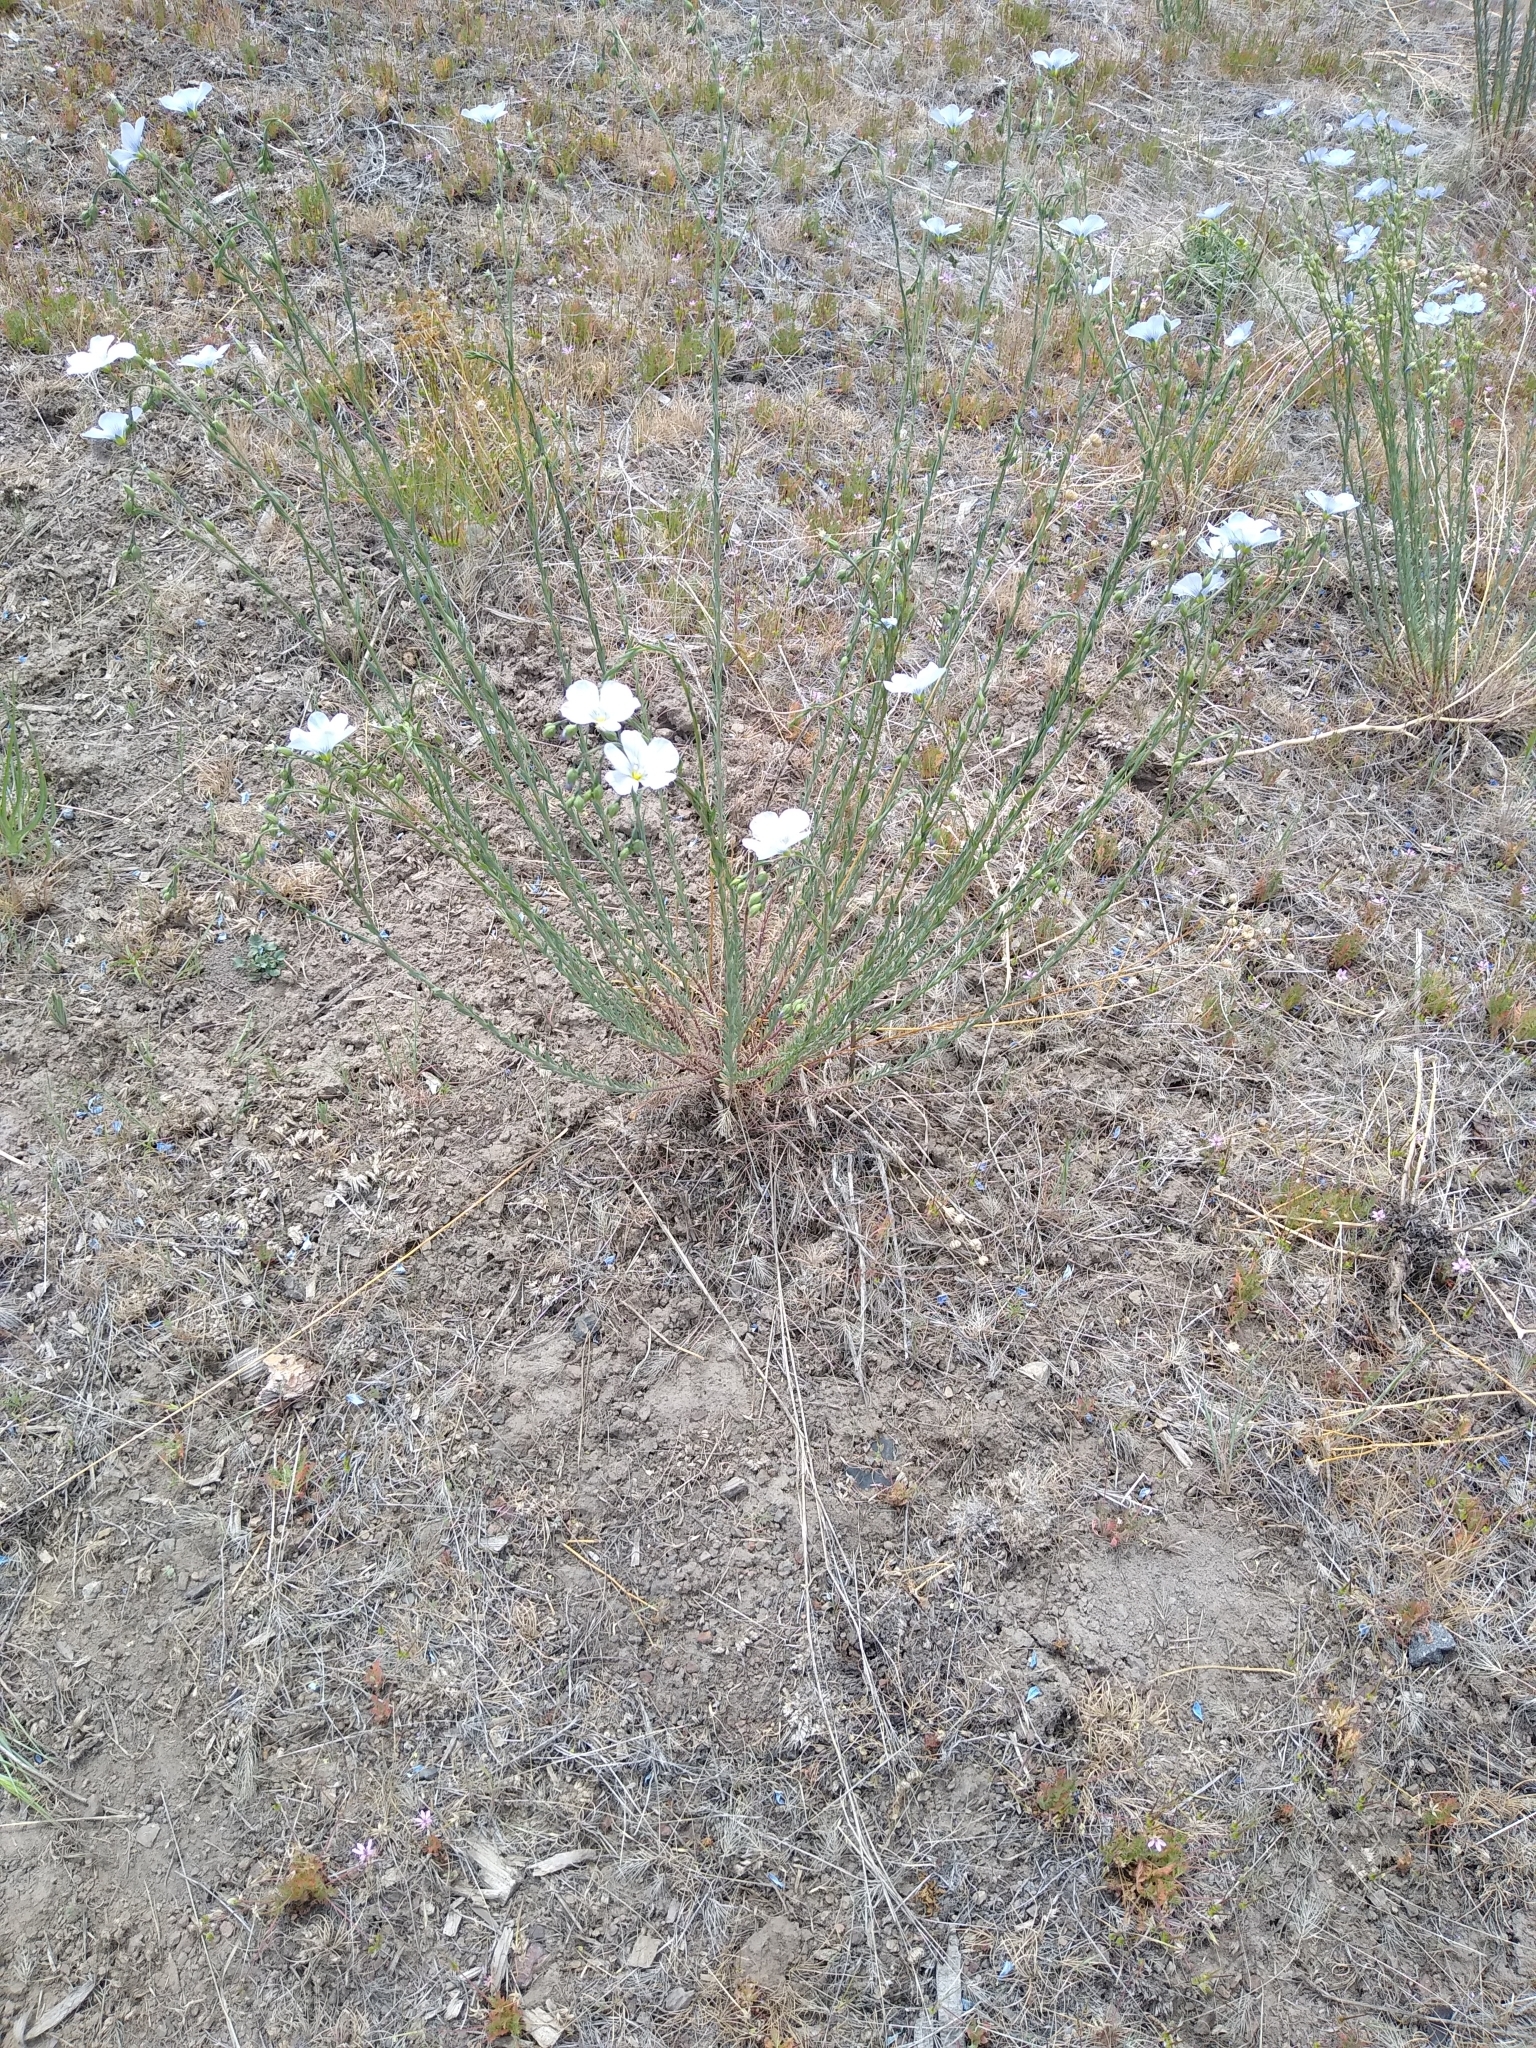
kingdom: Plantae
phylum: Tracheophyta
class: Magnoliopsida
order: Malpighiales
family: Linaceae
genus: Linum
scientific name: Linum lewisii
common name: Prairie flax
